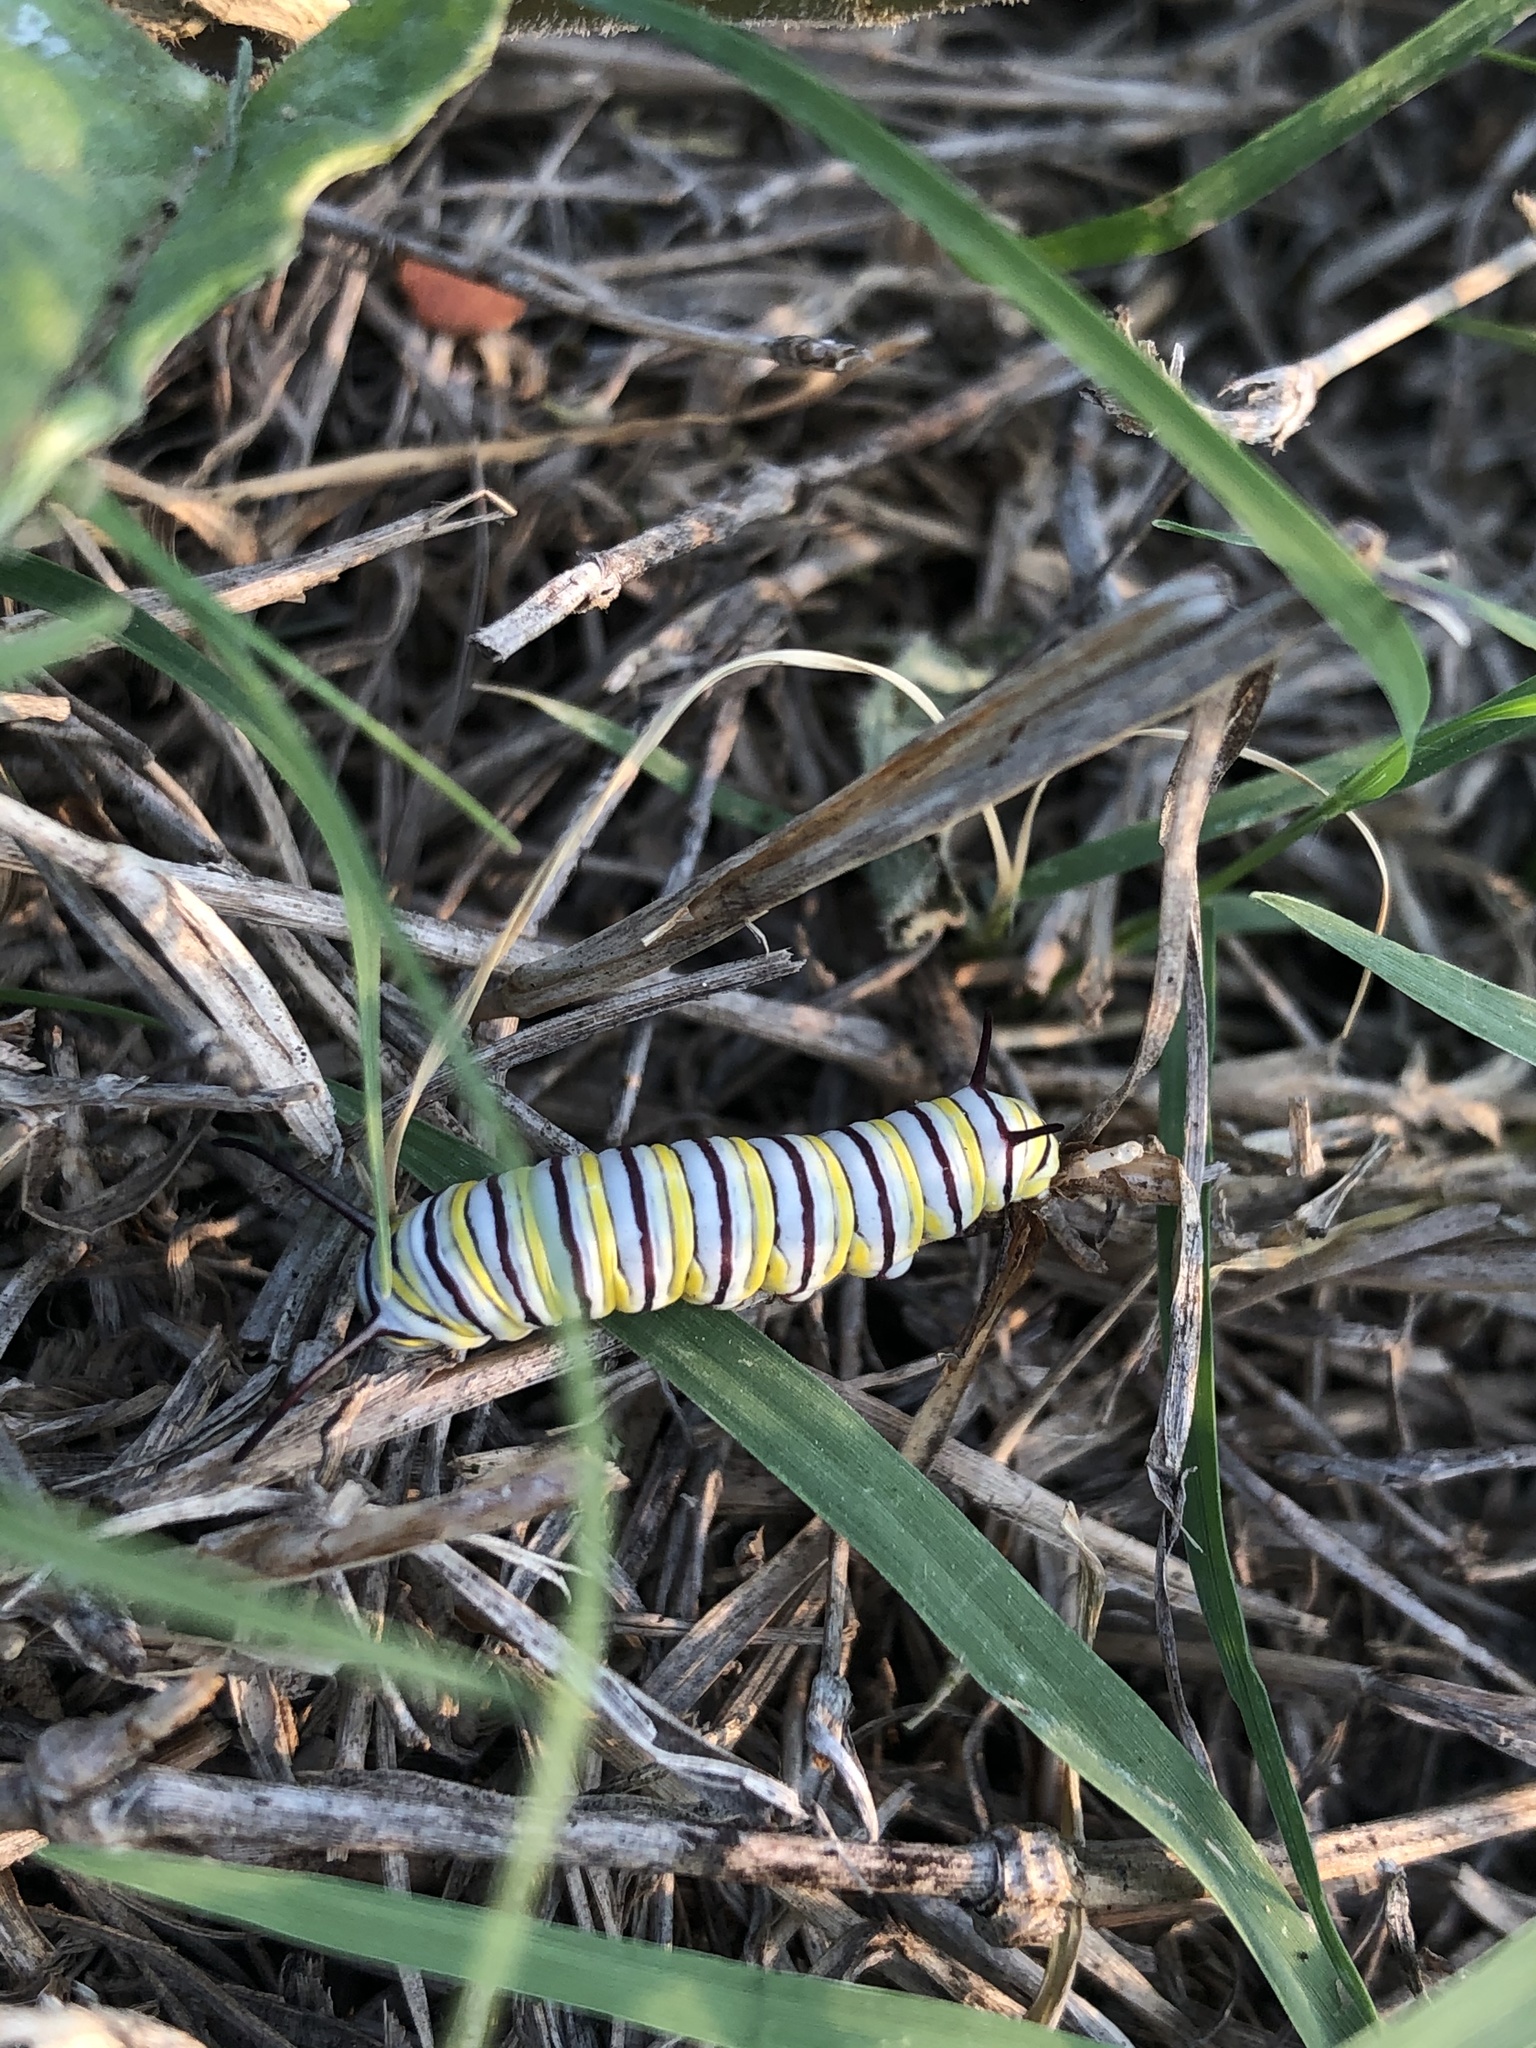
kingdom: Animalia
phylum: Arthropoda
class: Insecta
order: Lepidoptera
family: Nymphalidae
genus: Danaus
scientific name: Danaus plexippus
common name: Monarch
